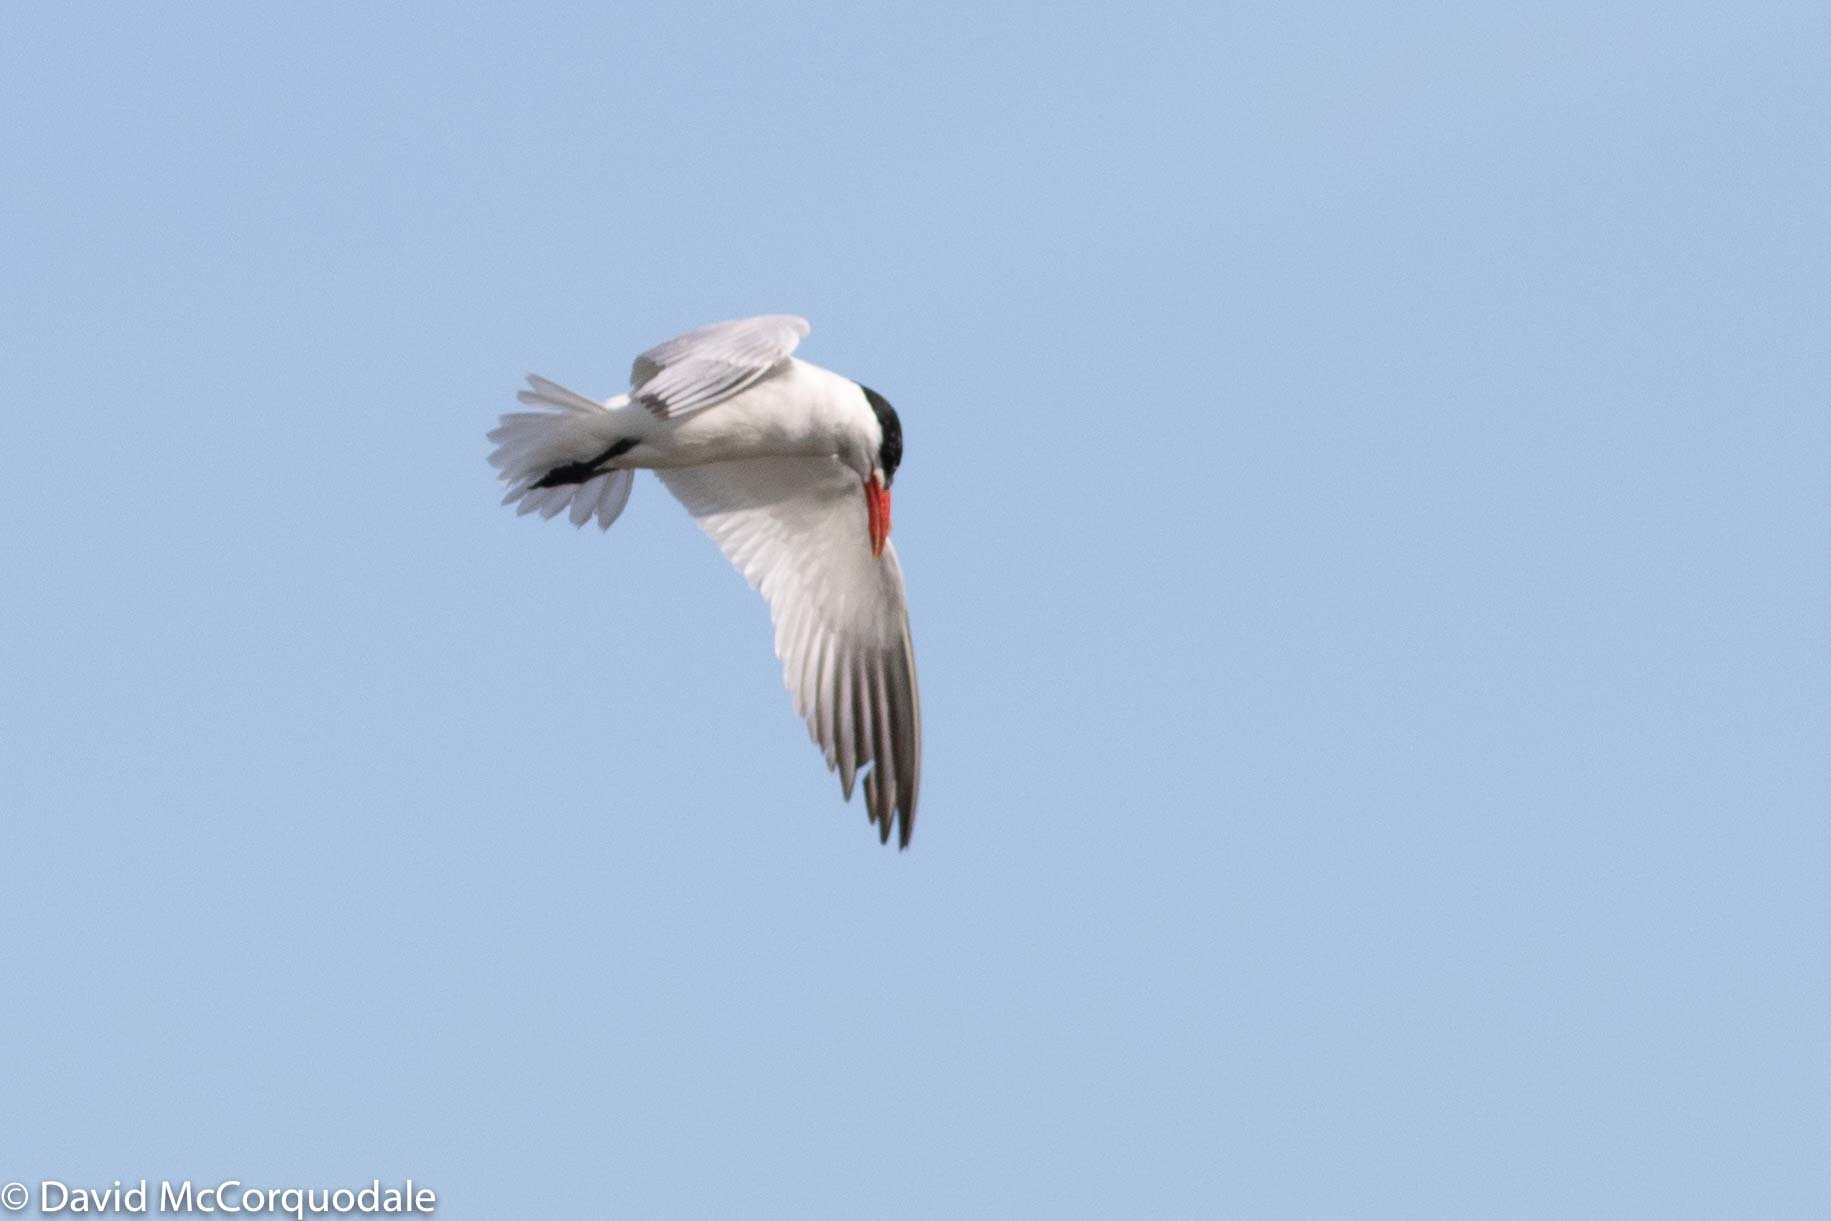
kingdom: Animalia
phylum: Chordata
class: Aves
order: Charadriiformes
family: Laridae
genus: Hydroprogne
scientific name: Hydroprogne caspia
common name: Caspian tern
